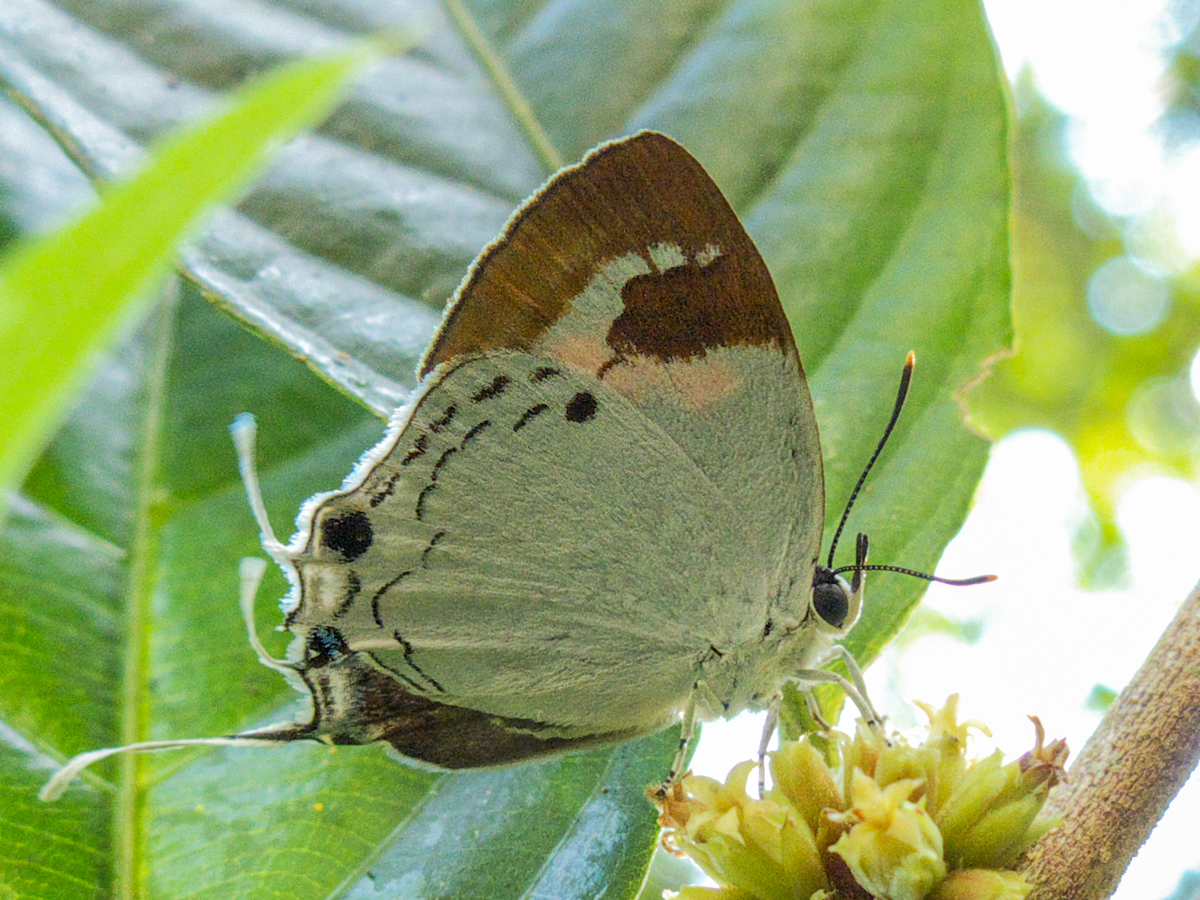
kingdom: Animalia
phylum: Arthropoda
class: Insecta
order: Lepidoptera
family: Lycaenidae
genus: Suasa
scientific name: Suasa lisides
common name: Red imperial
